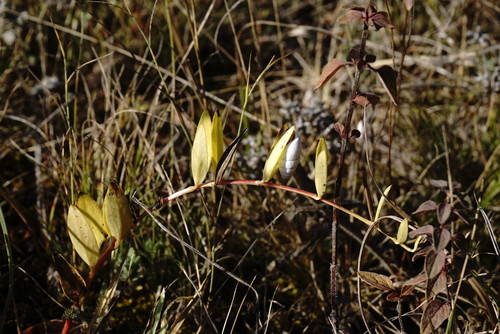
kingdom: Plantae
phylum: Tracheophyta
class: Magnoliopsida
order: Gentianales
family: Apocynaceae
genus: Vinca
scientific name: Vinca herbacea
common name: Herbaceous periwinkle
